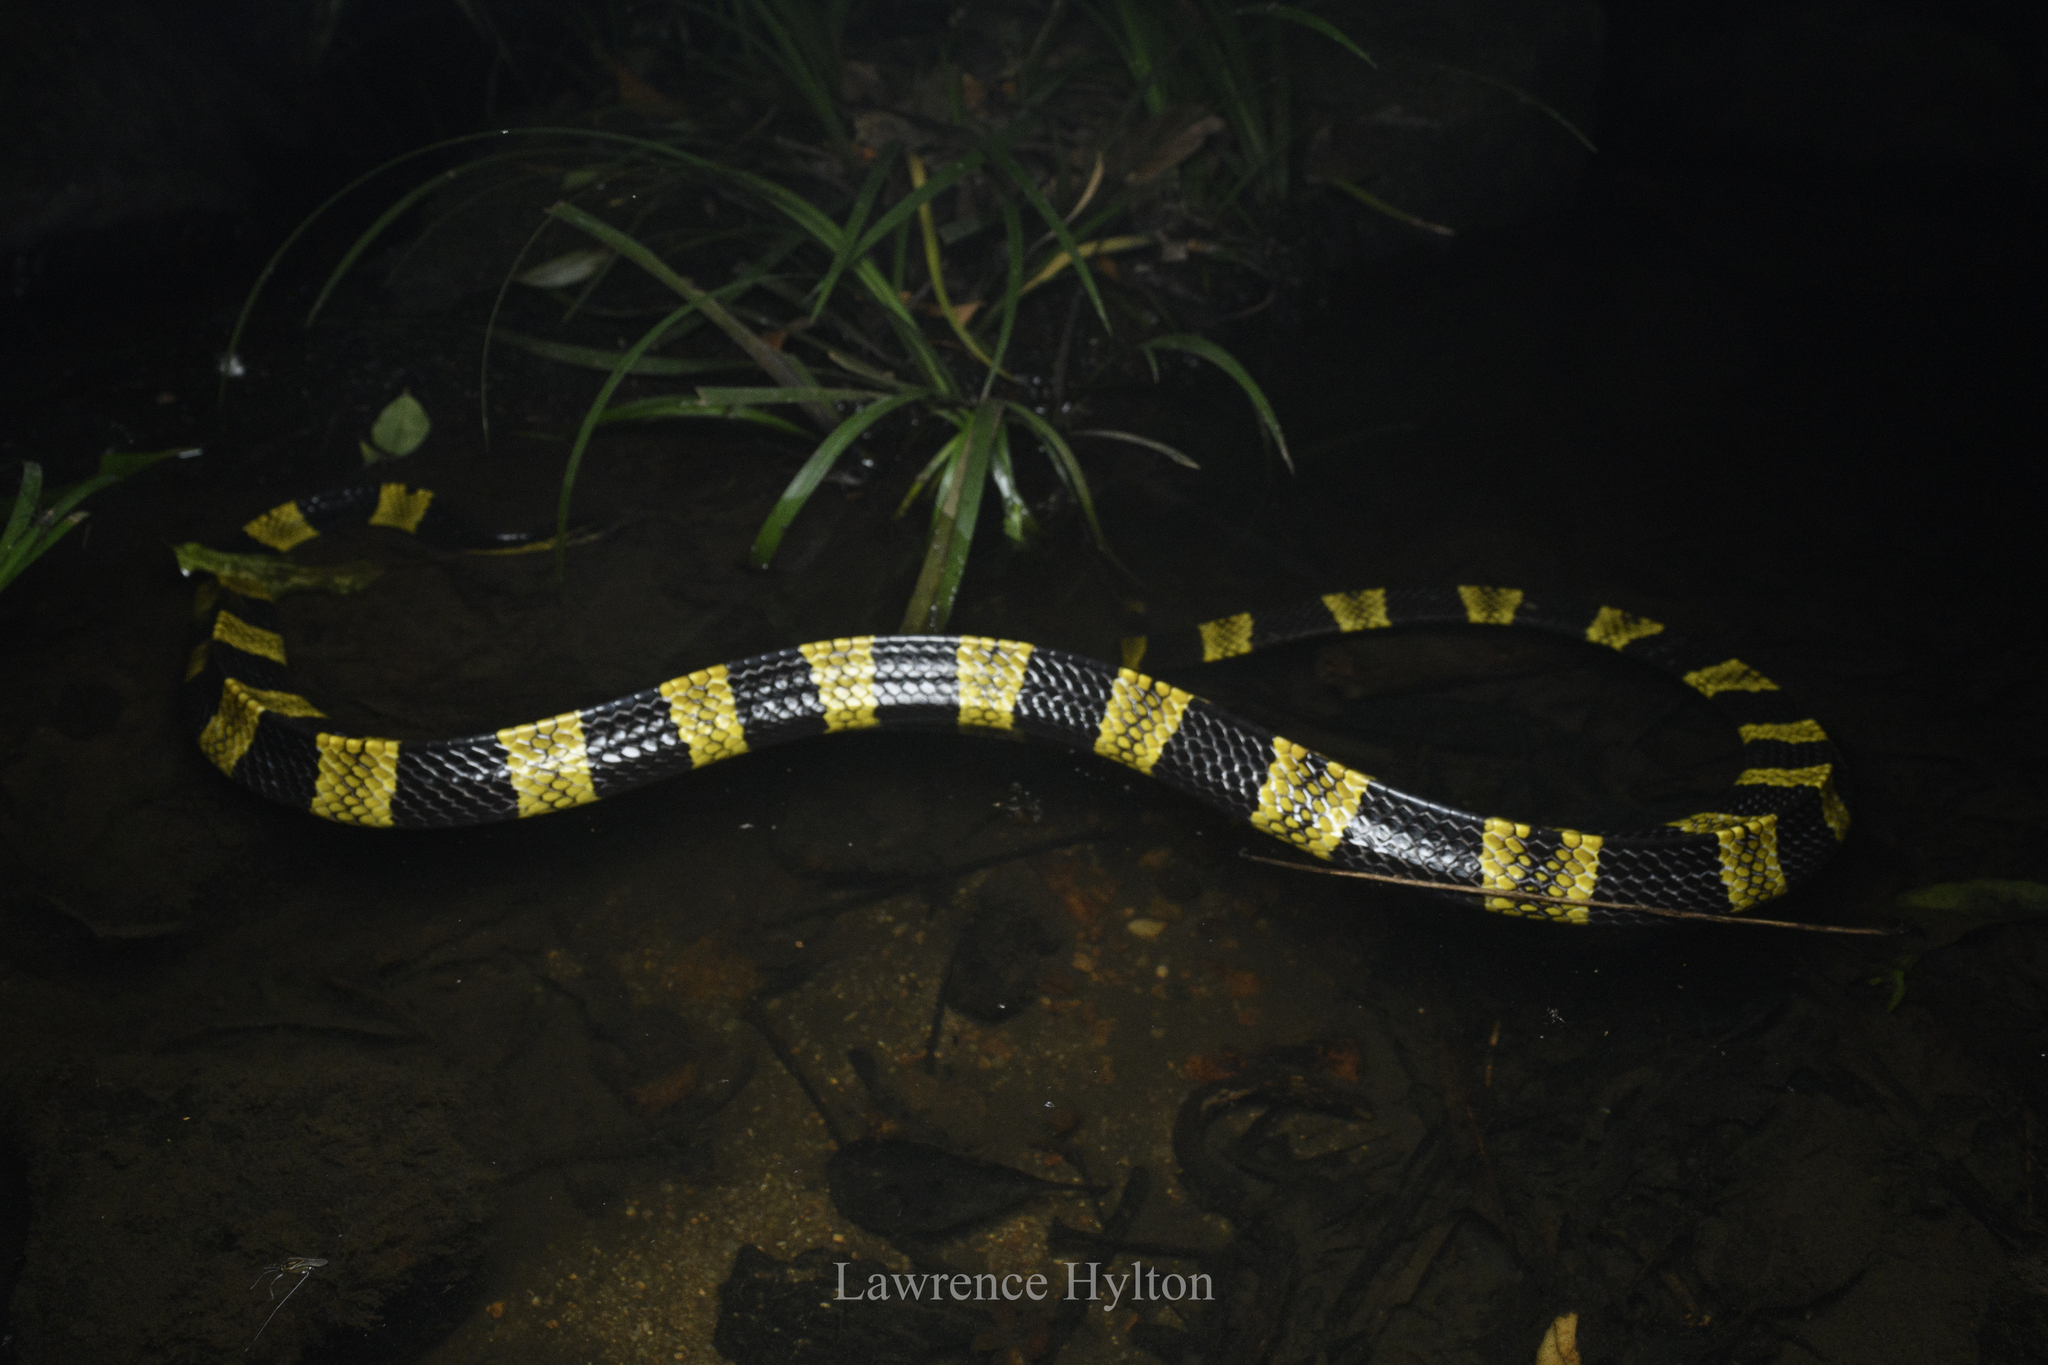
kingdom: Animalia
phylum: Chordata
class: Squamata
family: Elapidae
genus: Bungarus
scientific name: Bungarus fasciatus
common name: Banded krait
